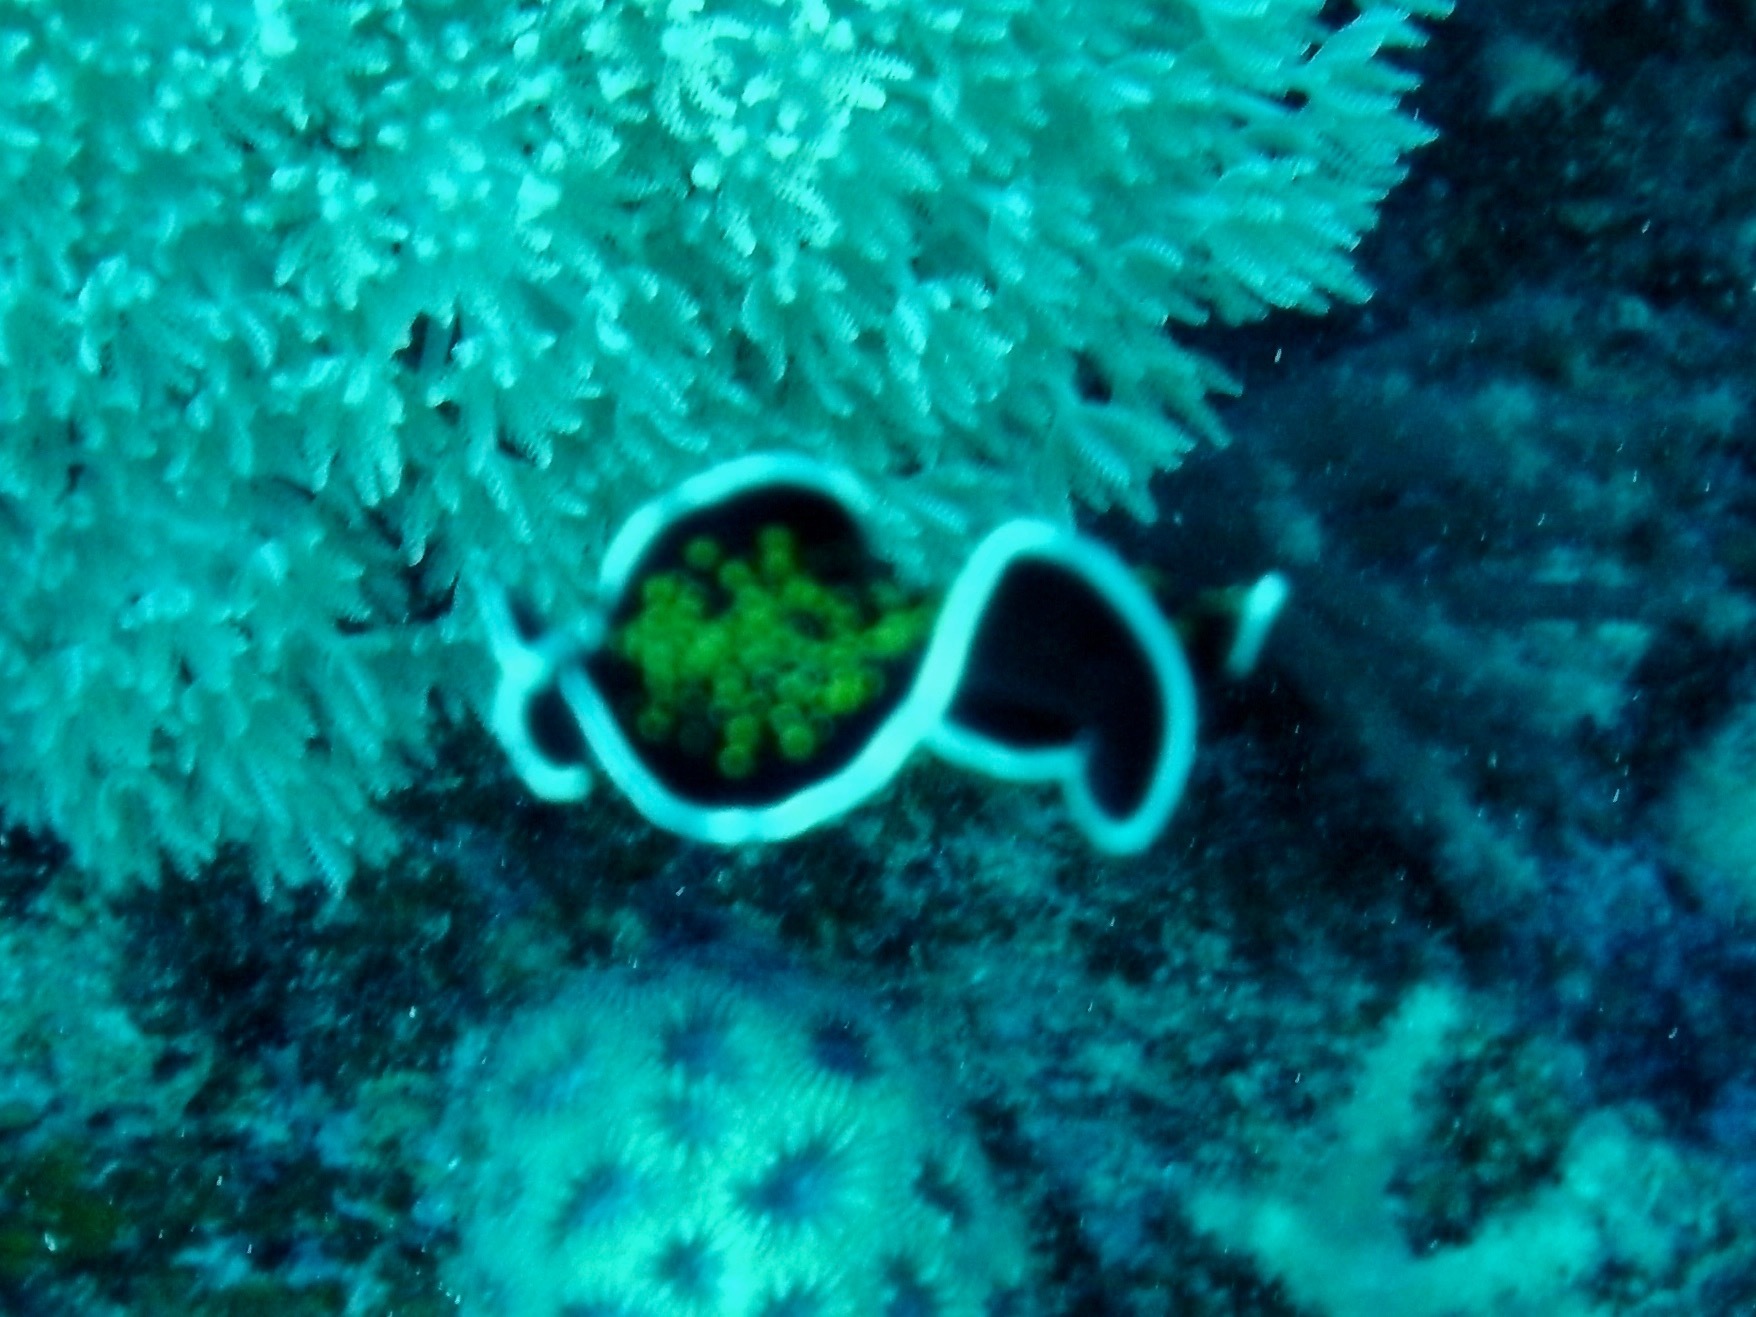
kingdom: Animalia
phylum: Platyhelminthes
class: Turbellaria
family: Pseudocerotidae
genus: Thysanozoon
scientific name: Thysanozoon nigropapillosum
